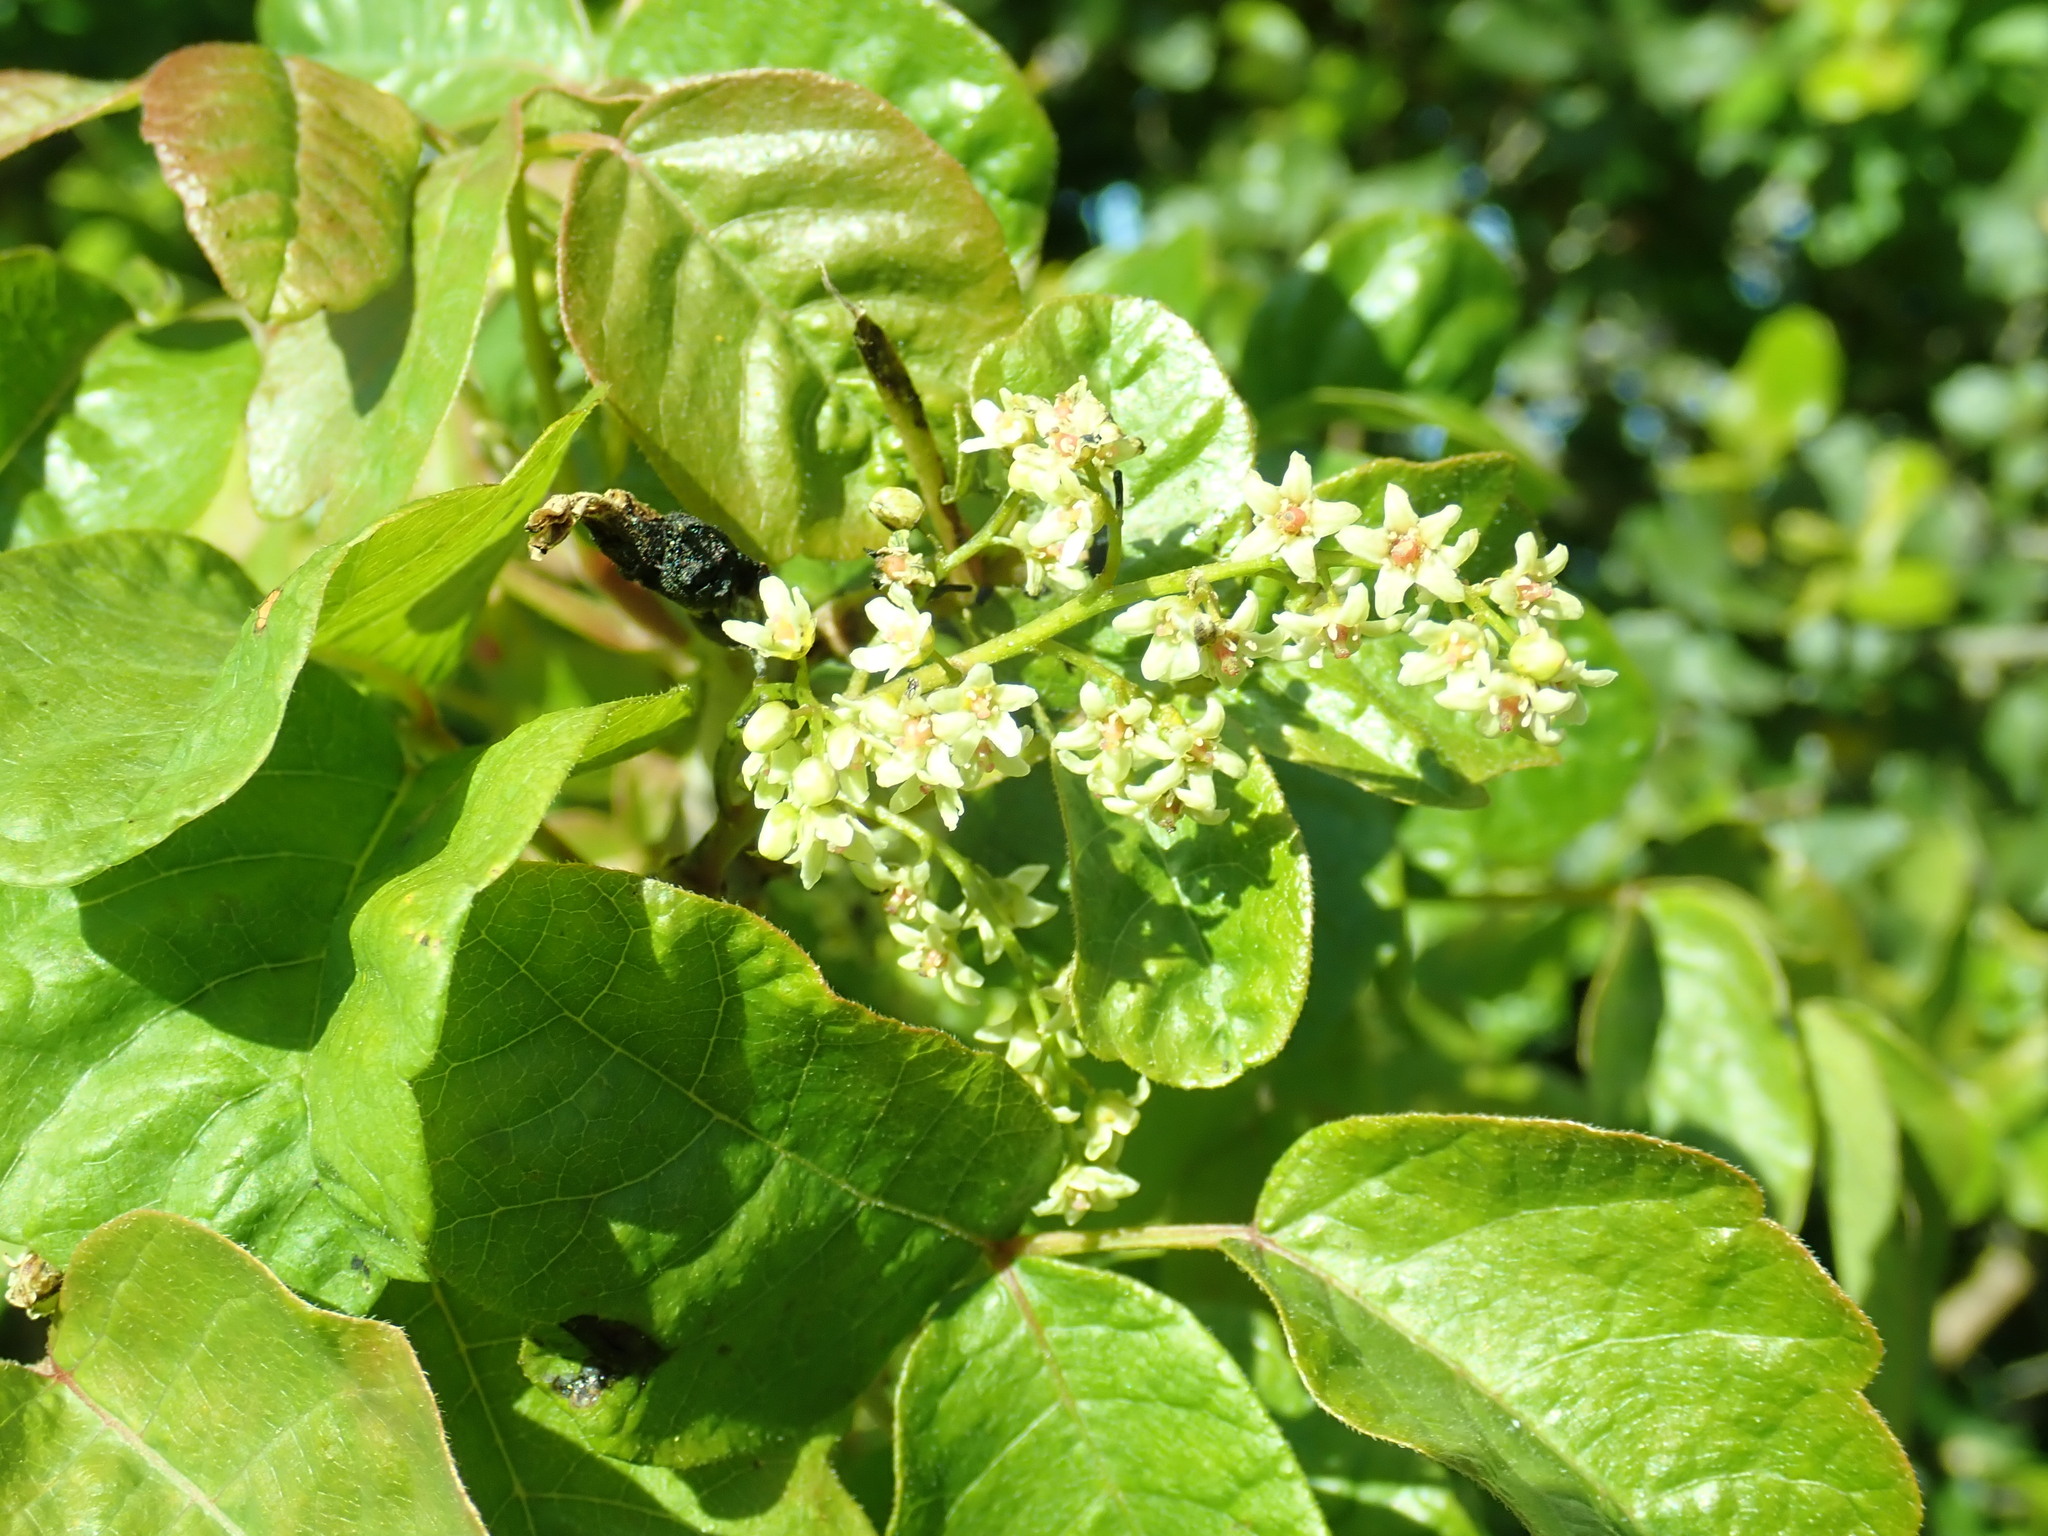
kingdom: Plantae
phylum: Tracheophyta
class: Magnoliopsida
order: Sapindales
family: Anacardiaceae
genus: Toxicodendron
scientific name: Toxicodendron diversilobum
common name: Pacific poison-oak
